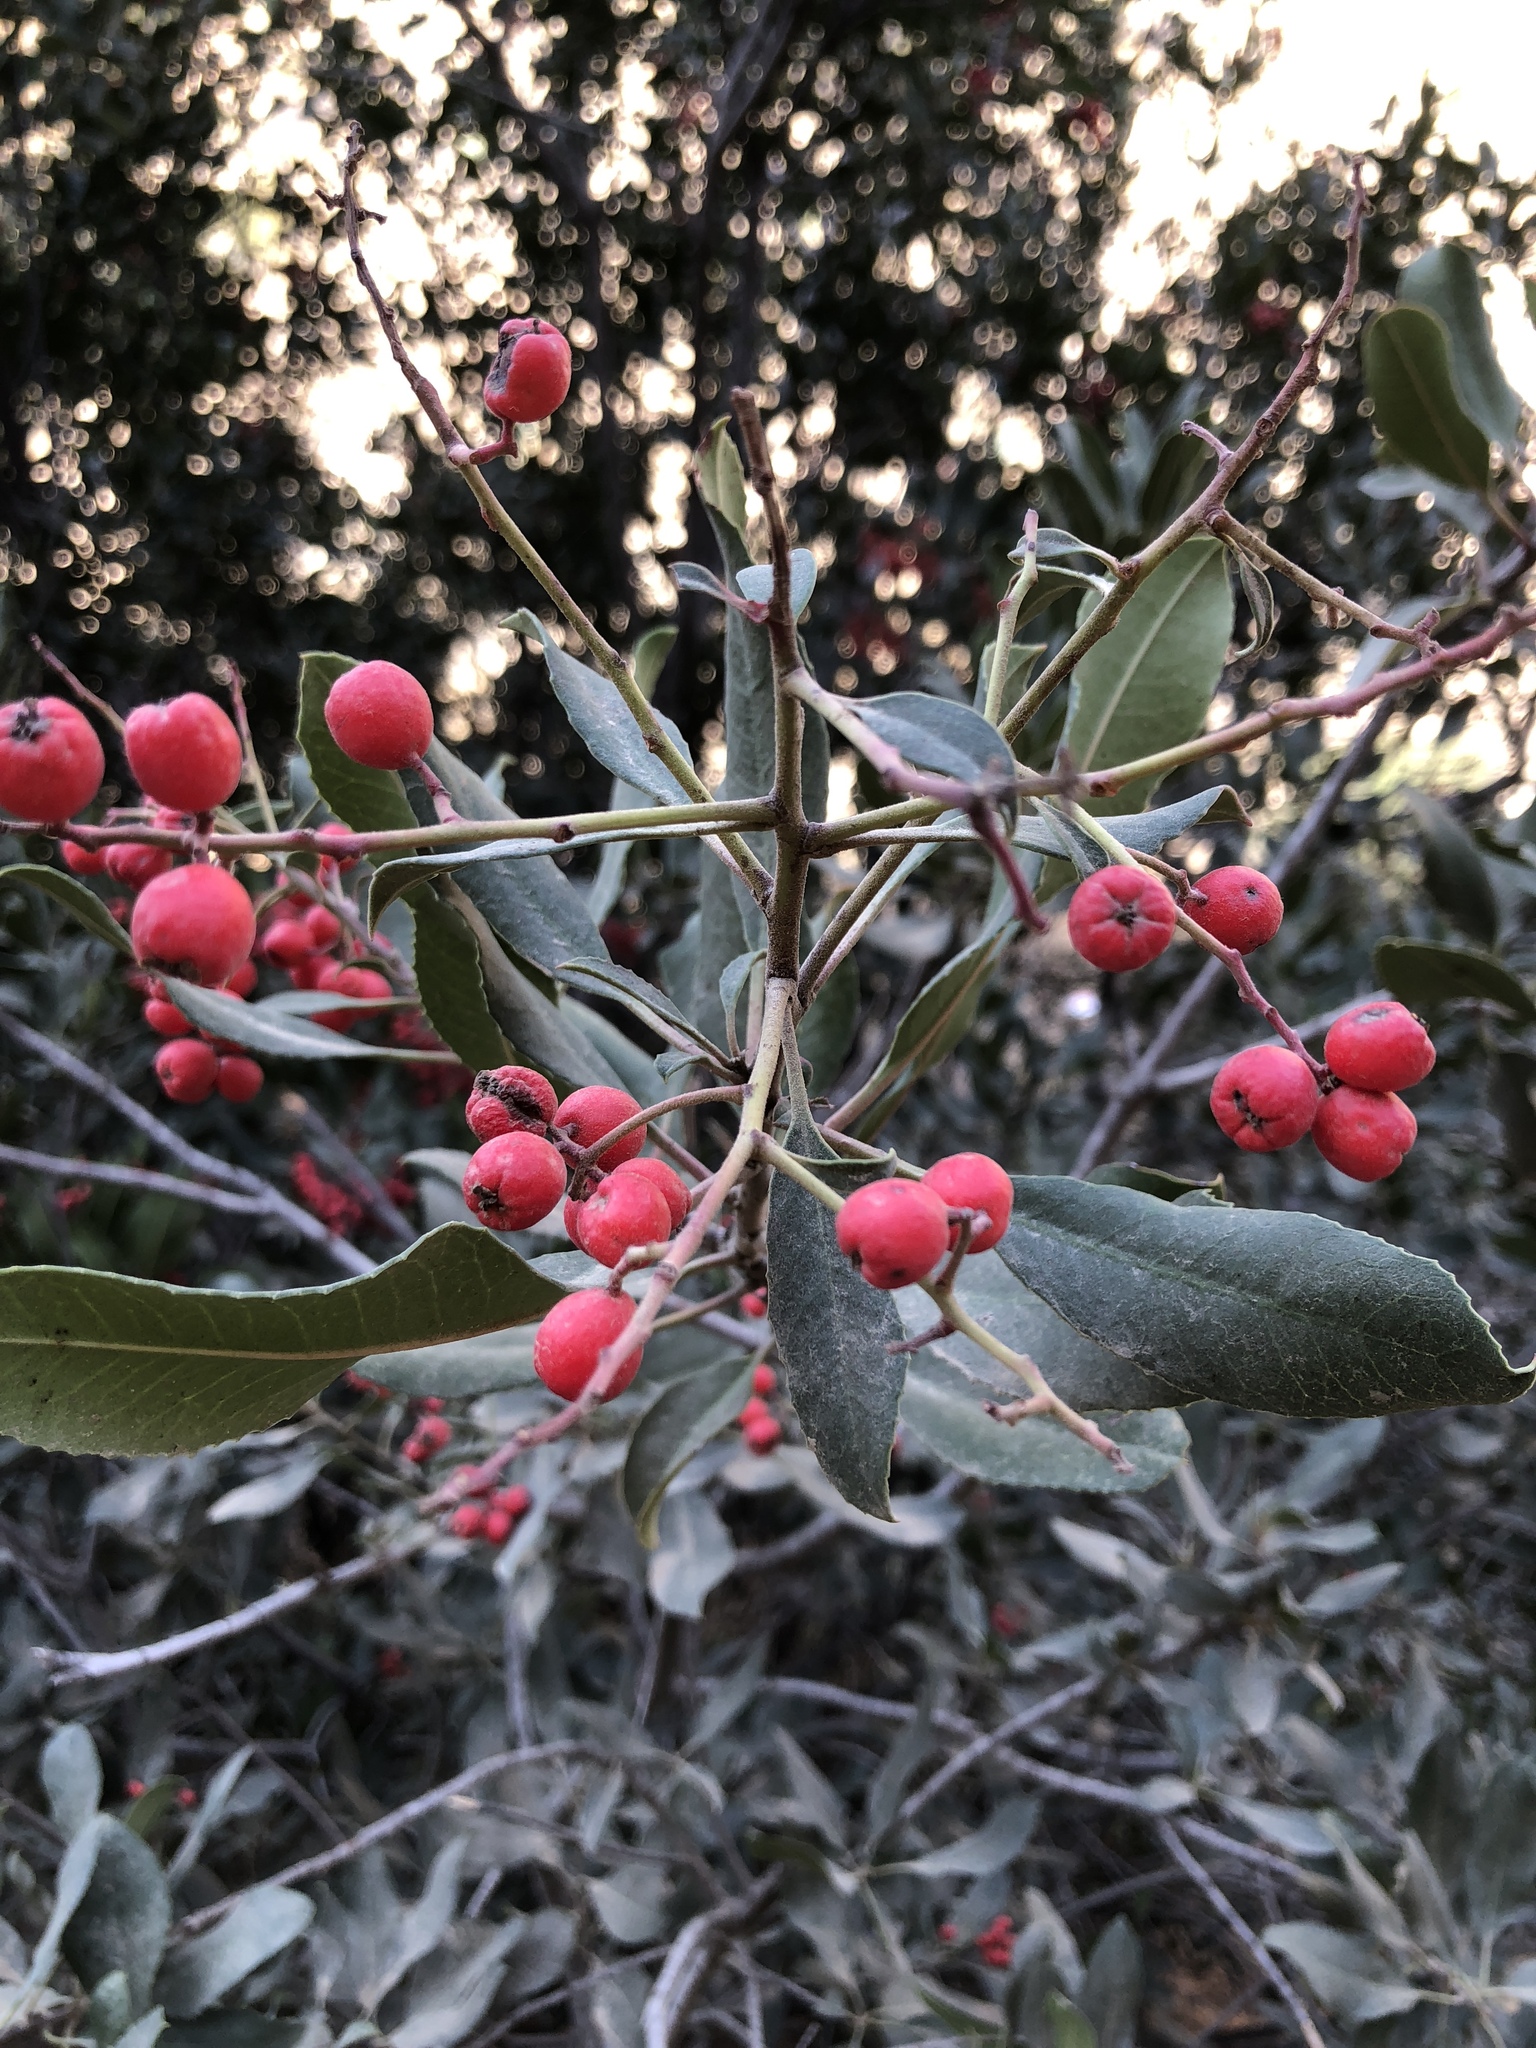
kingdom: Plantae
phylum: Tracheophyta
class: Magnoliopsida
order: Rosales
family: Rosaceae
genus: Heteromeles
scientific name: Heteromeles arbutifolia
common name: California-holly
